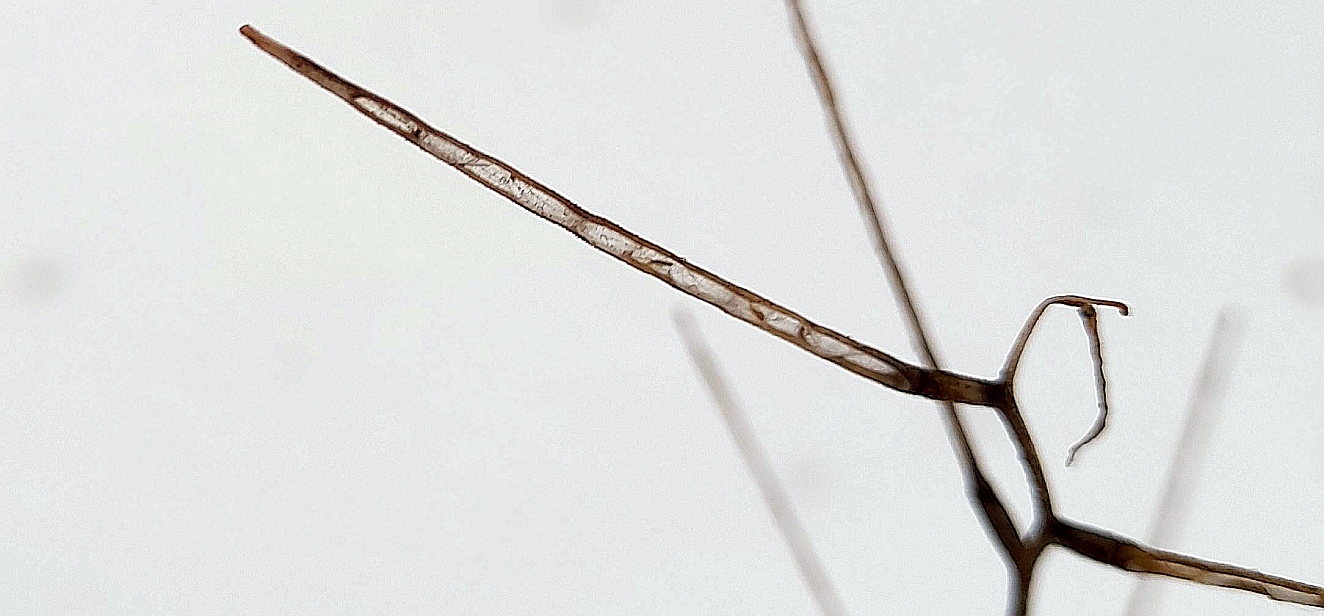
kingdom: Plantae
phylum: Tracheophyta
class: Magnoliopsida
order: Brassicales
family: Brassicaceae
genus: Alliaria
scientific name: Alliaria petiolata
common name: Garlic mustard
